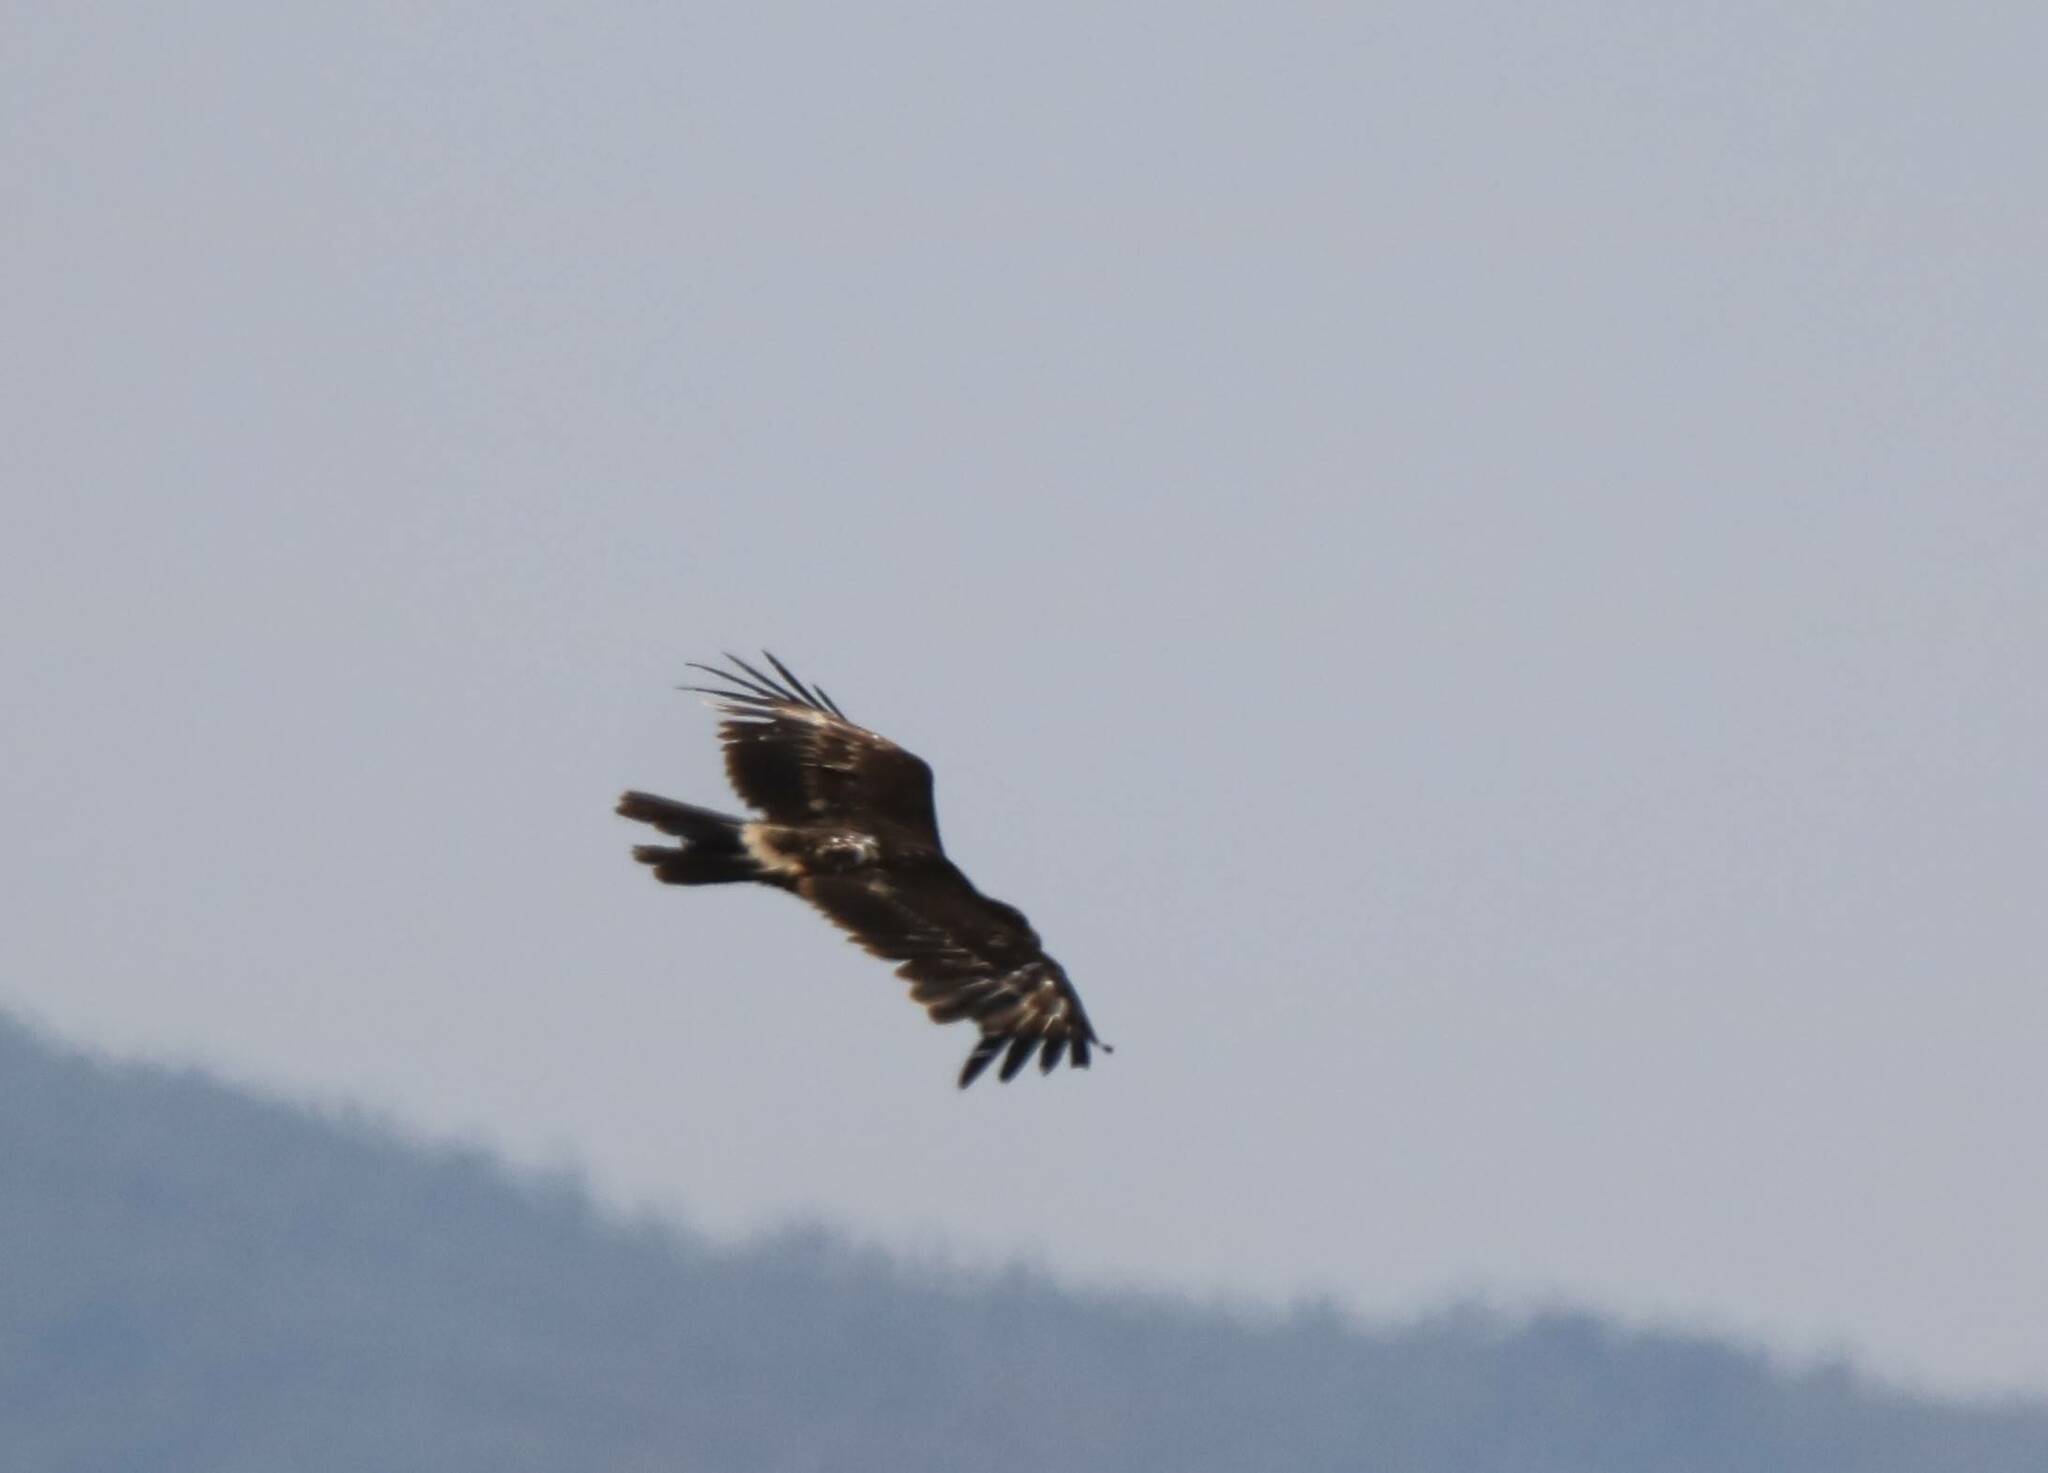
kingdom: Animalia
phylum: Chordata
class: Aves
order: Accipitriformes
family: Accipitridae
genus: Aquila
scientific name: Aquila clanga
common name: Greater spotted eagle
